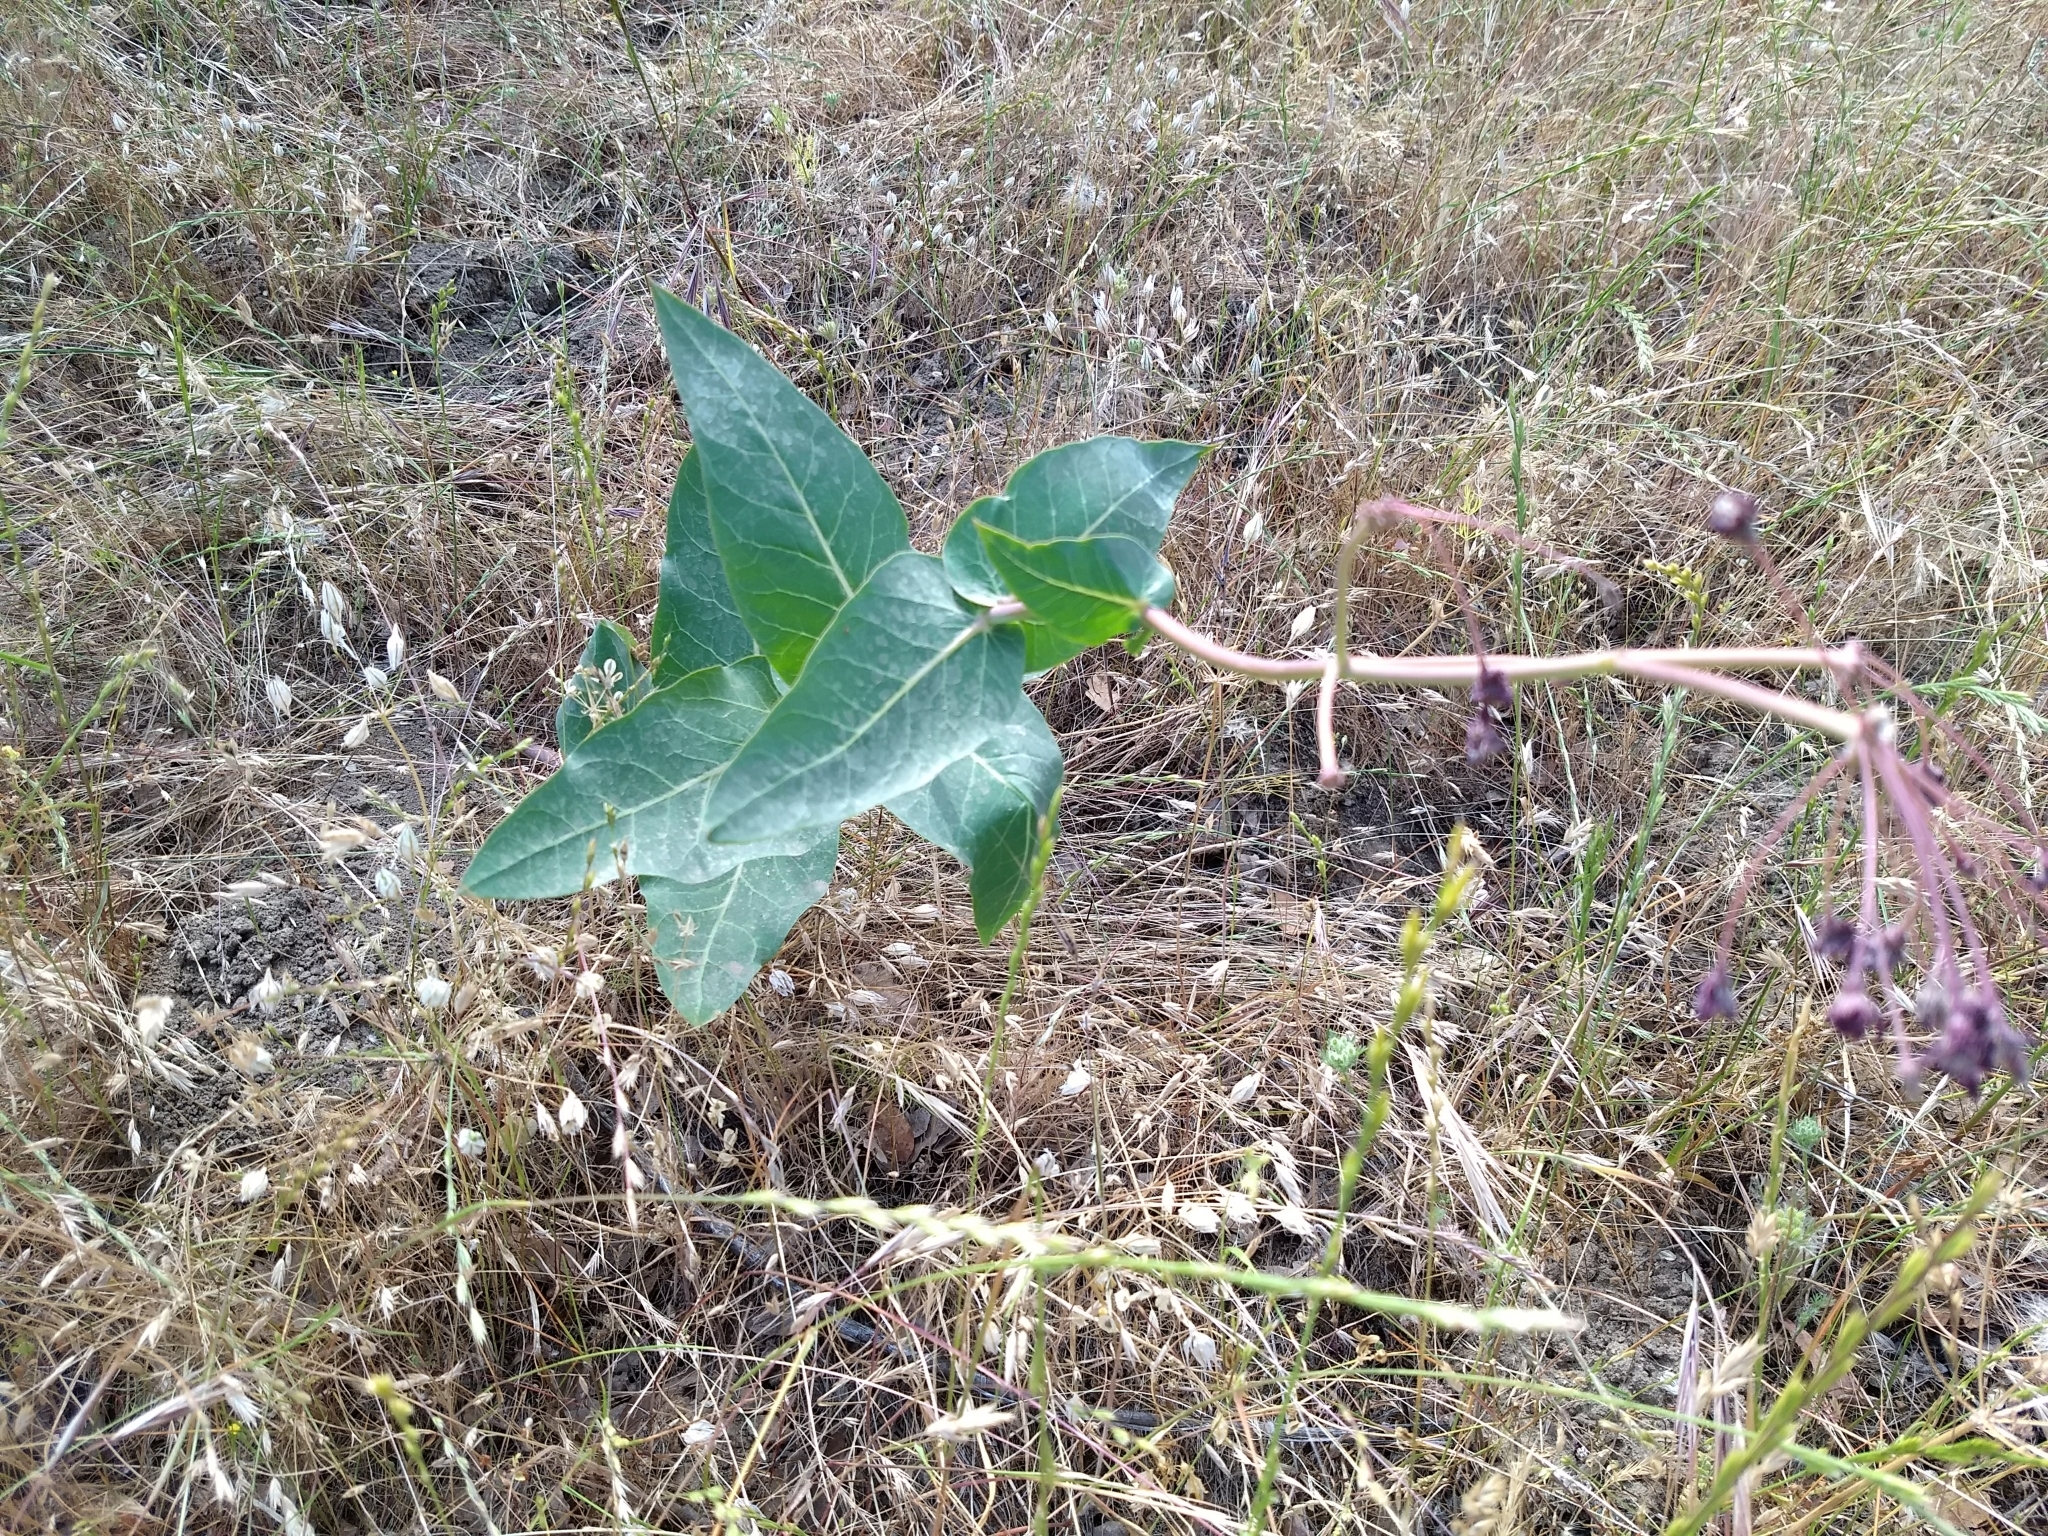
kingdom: Plantae
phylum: Tracheophyta
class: Magnoliopsida
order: Gentianales
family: Apocynaceae
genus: Asclepias
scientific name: Asclepias cordifolia
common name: Purple milkweed
